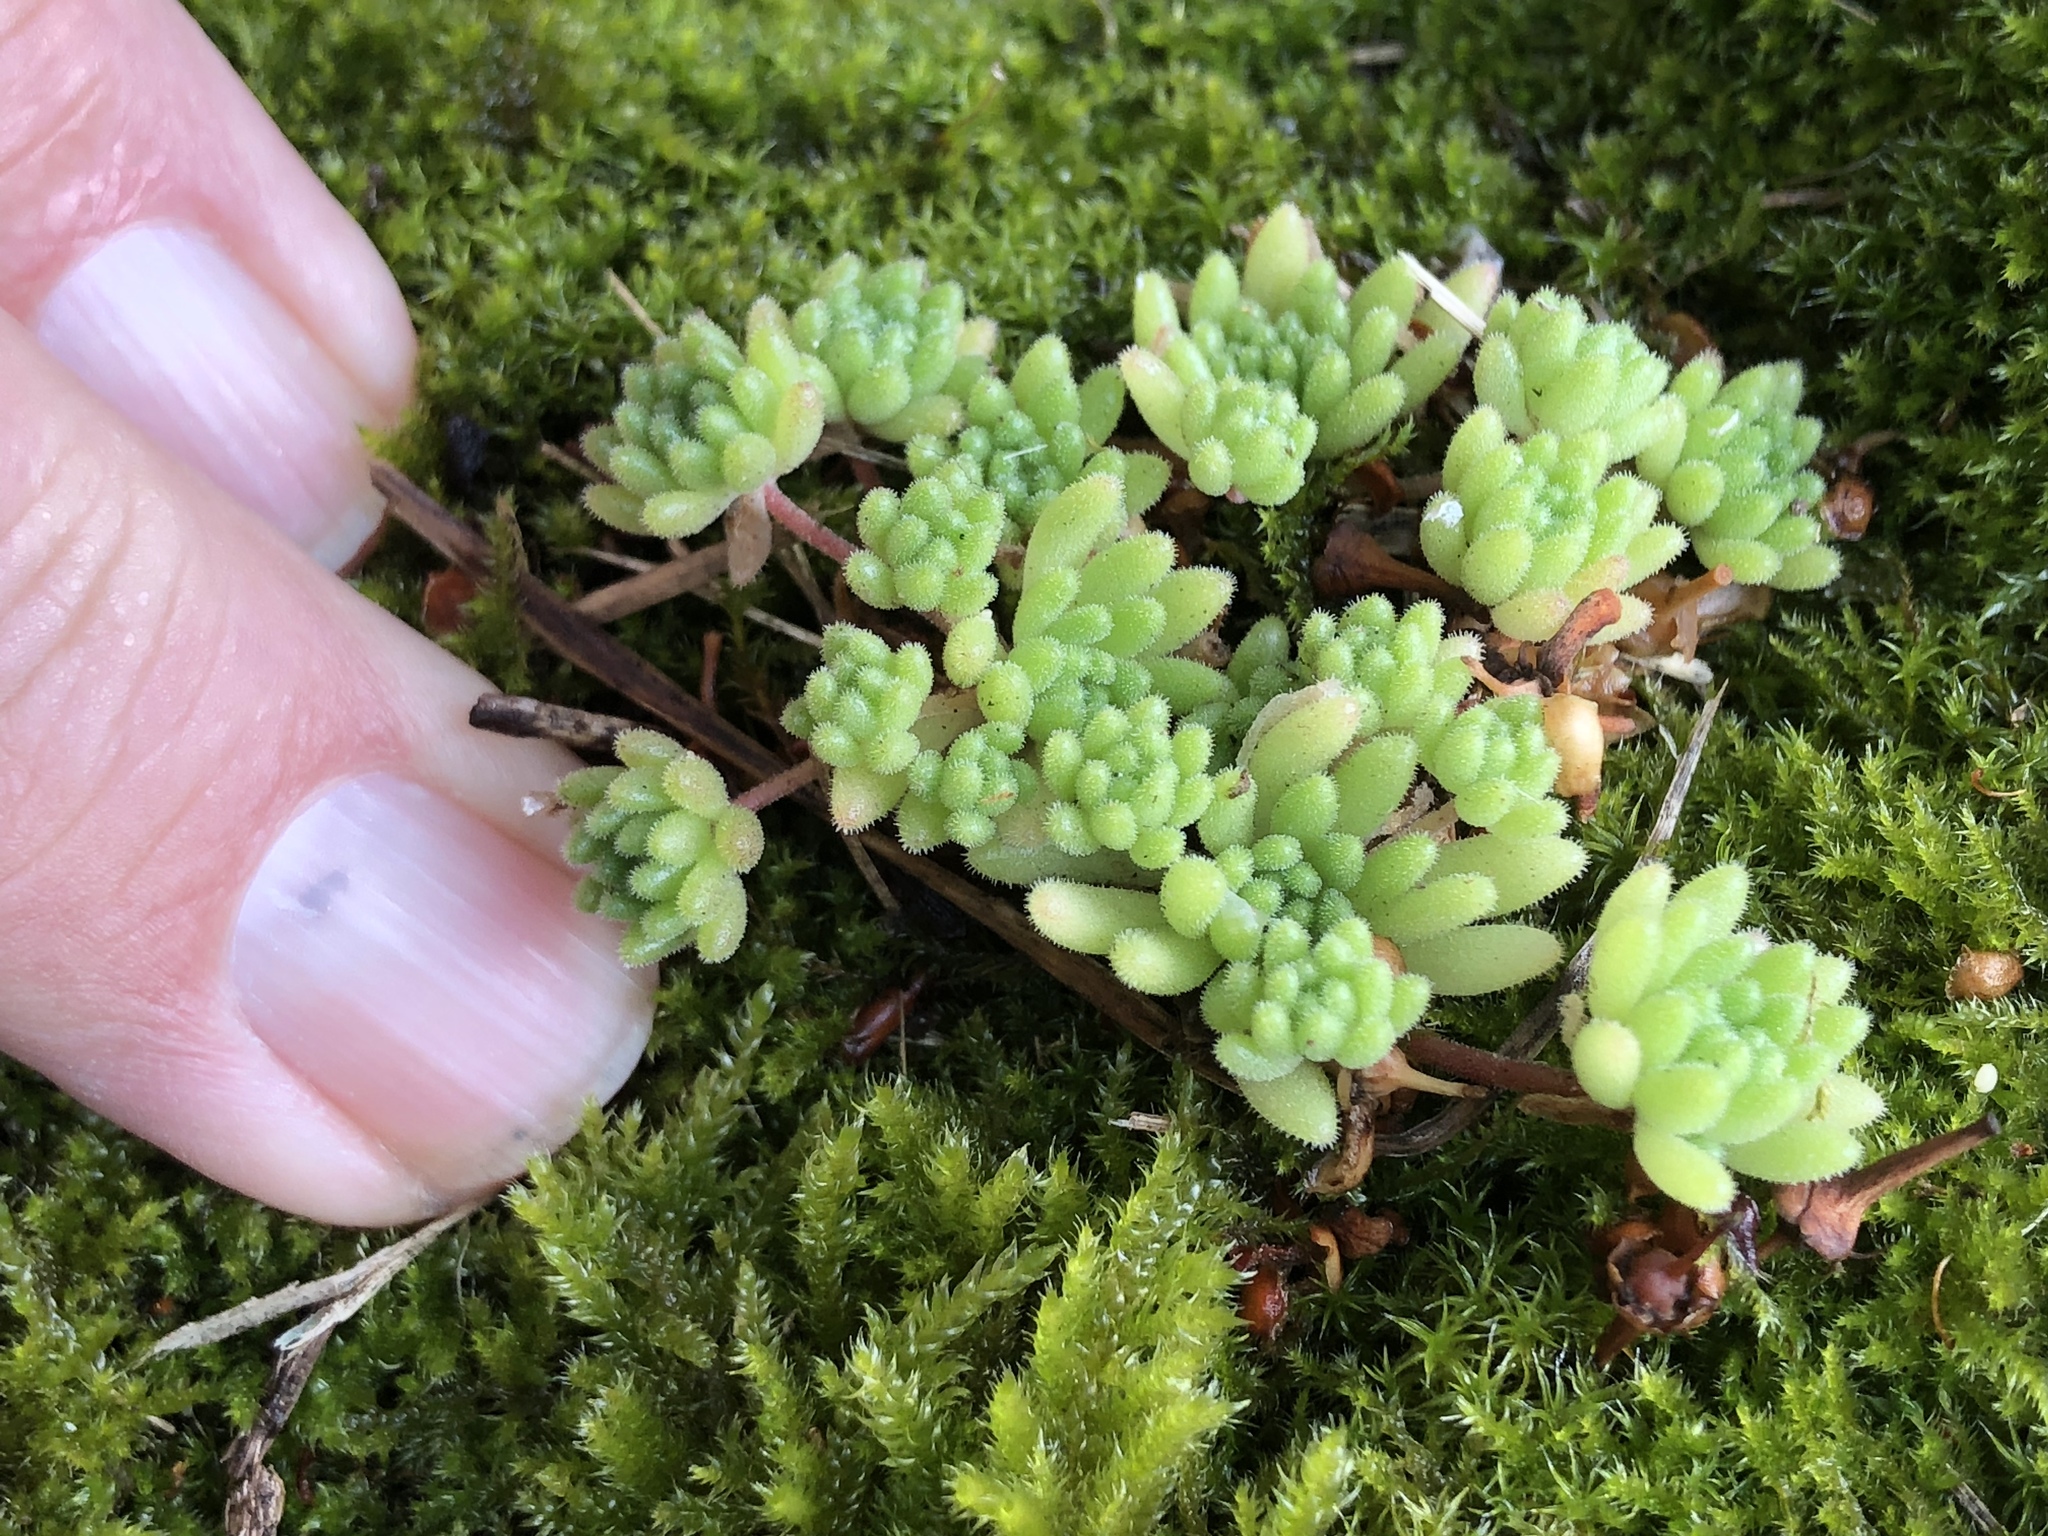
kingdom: Plantae
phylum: Tracheophyta
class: Magnoliopsida
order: Saxifragales
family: Crassulaceae
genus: Sedum
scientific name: Sedum hirsutum
